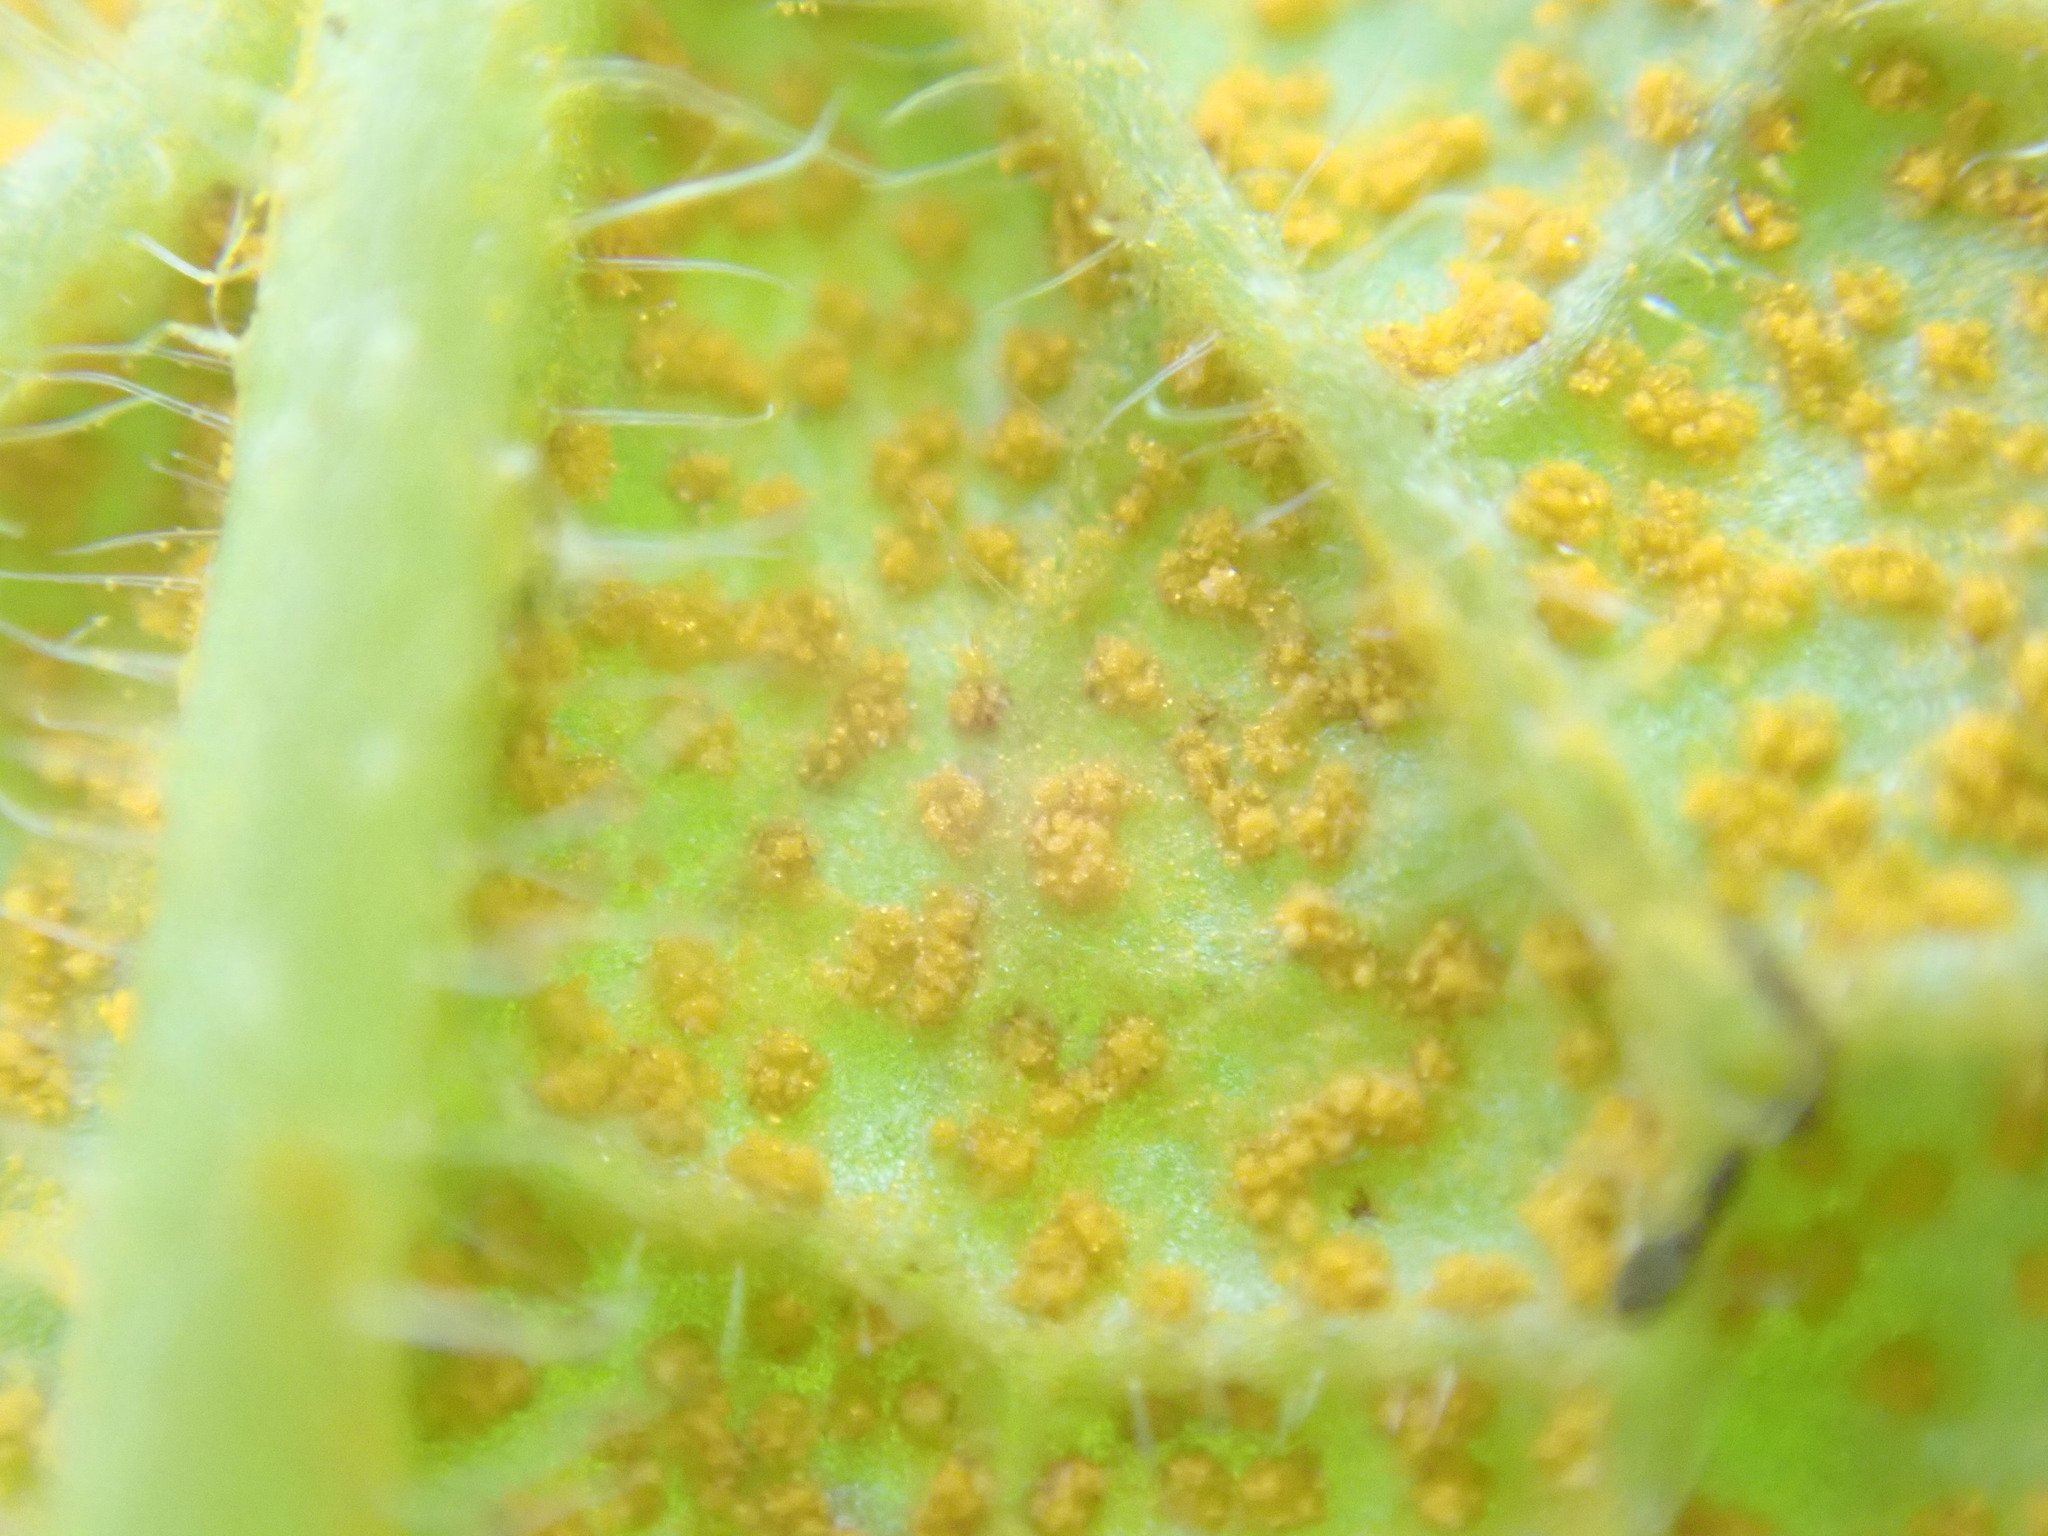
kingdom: Fungi
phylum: Basidiomycota
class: Pucciniomycetes
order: Pucciniales
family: Pucciniastraceae
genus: Pucciniastrum
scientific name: Pucciniastrum symphyti
